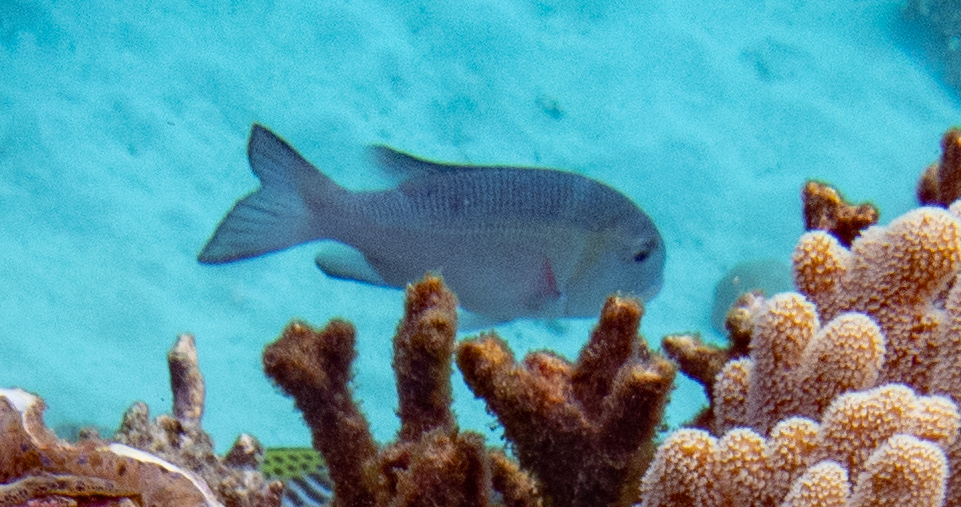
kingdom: Animalia
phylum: Chordata
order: Perciformes
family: Lethrinidae
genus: Monotaxis
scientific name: Monotaxis grandoculis
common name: Bigeye emperor
